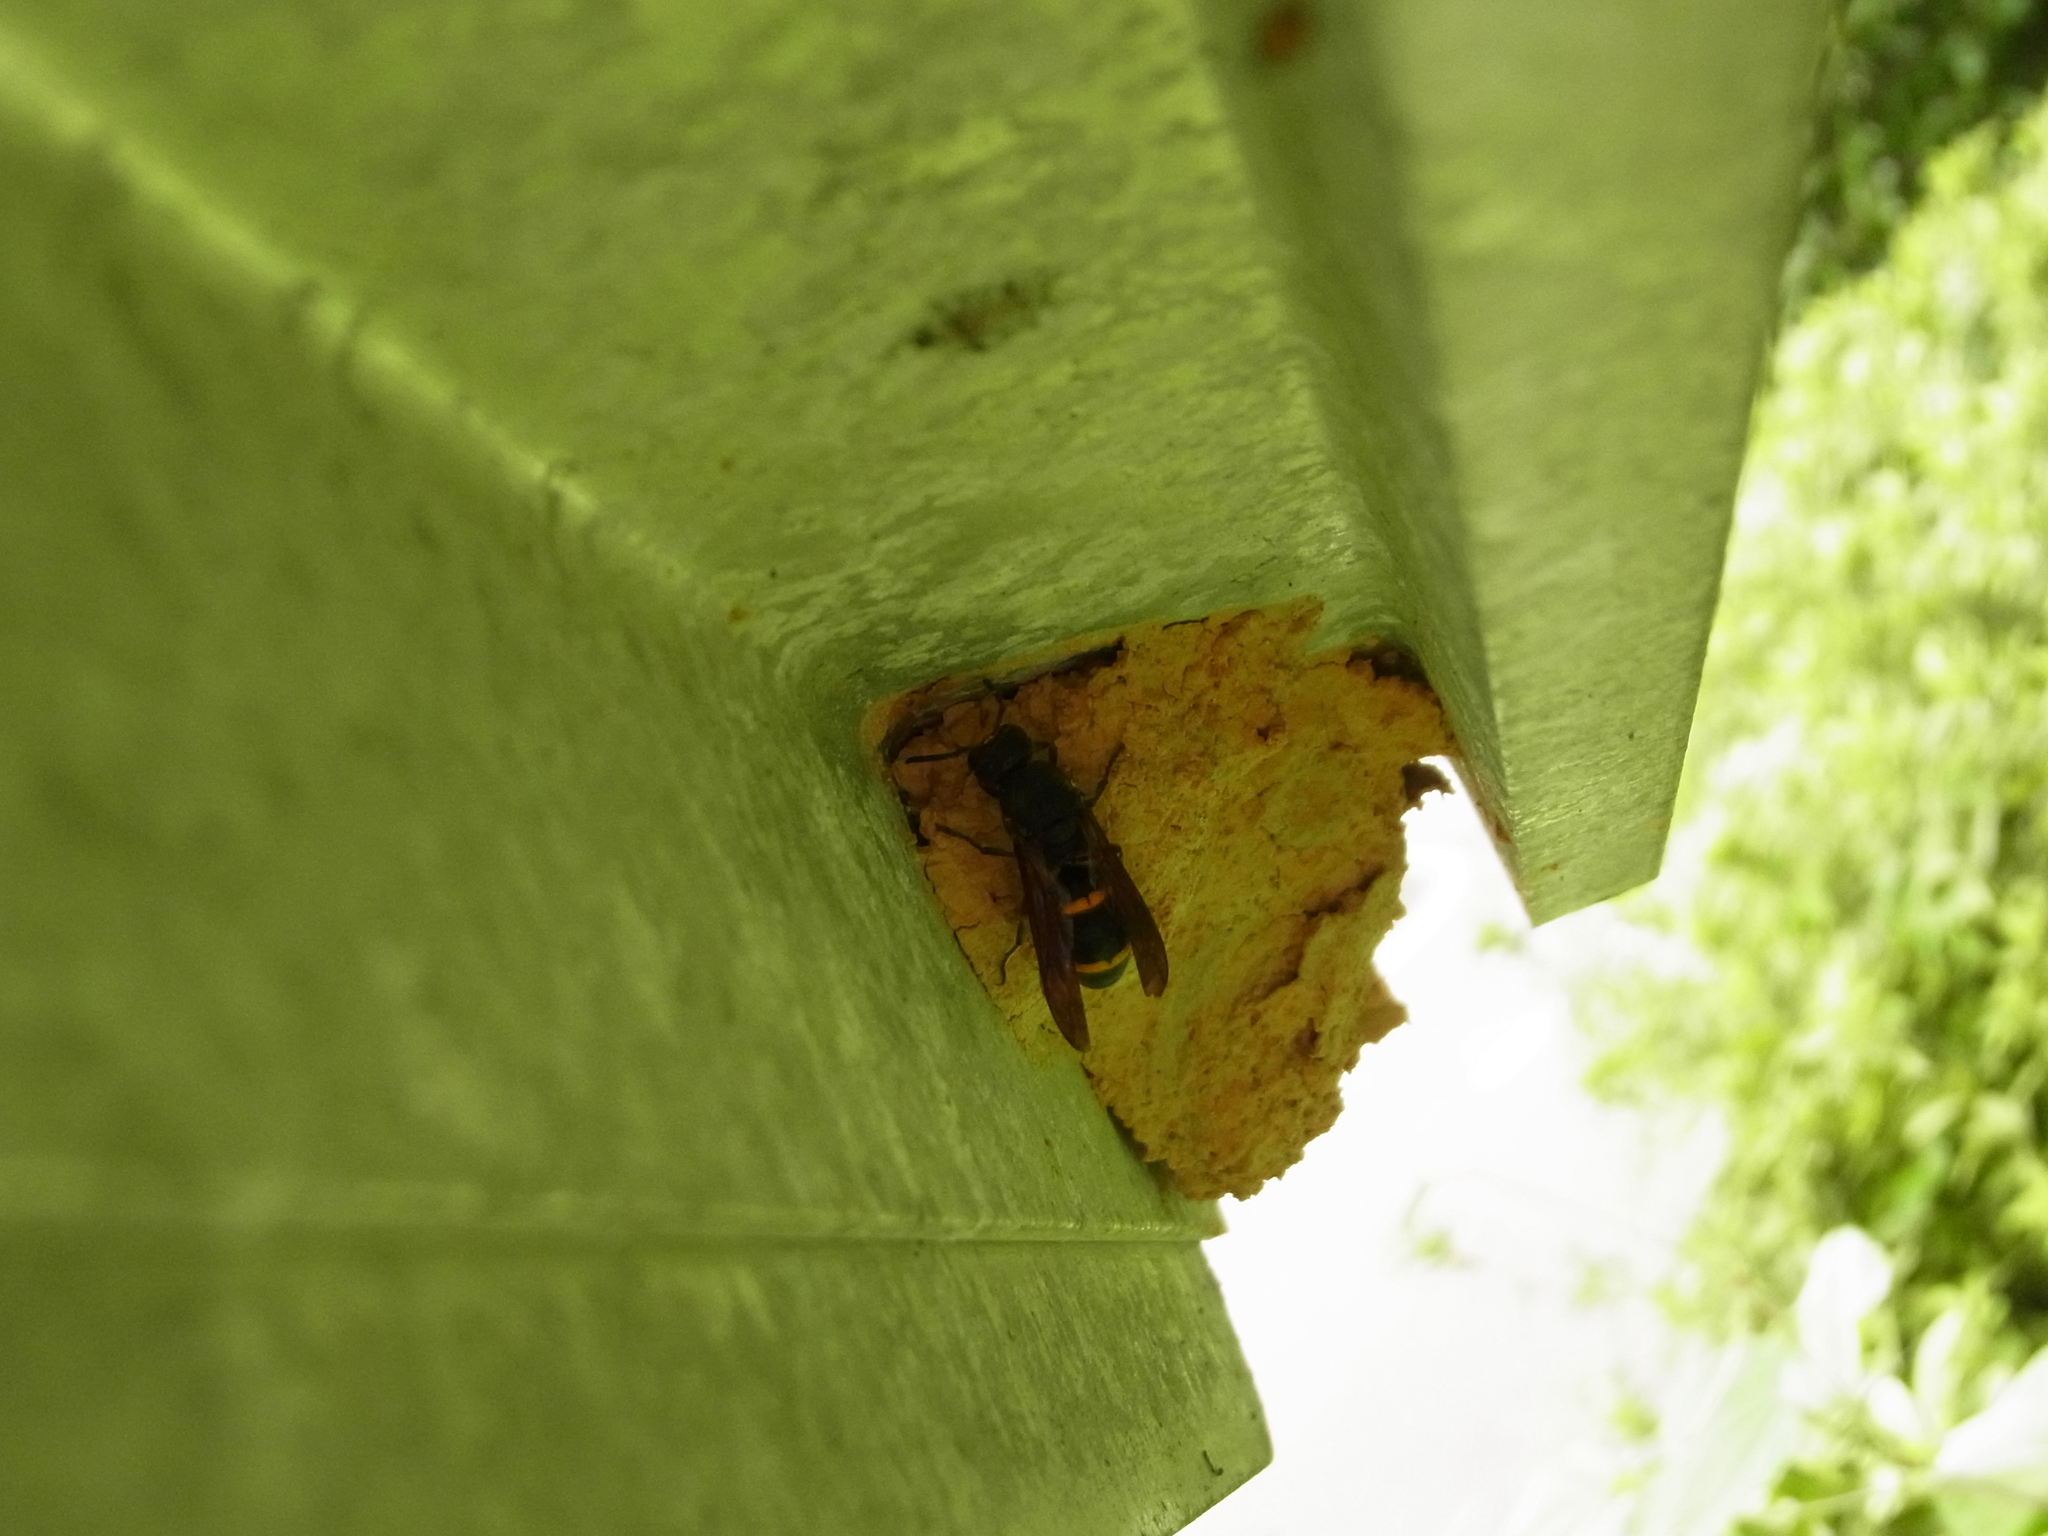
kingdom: Animalia
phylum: Arthropoda
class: Insecta
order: Hymenoptera
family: Eumenidae
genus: Orancistrocerus
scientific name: Orancistrocerus drewseni
